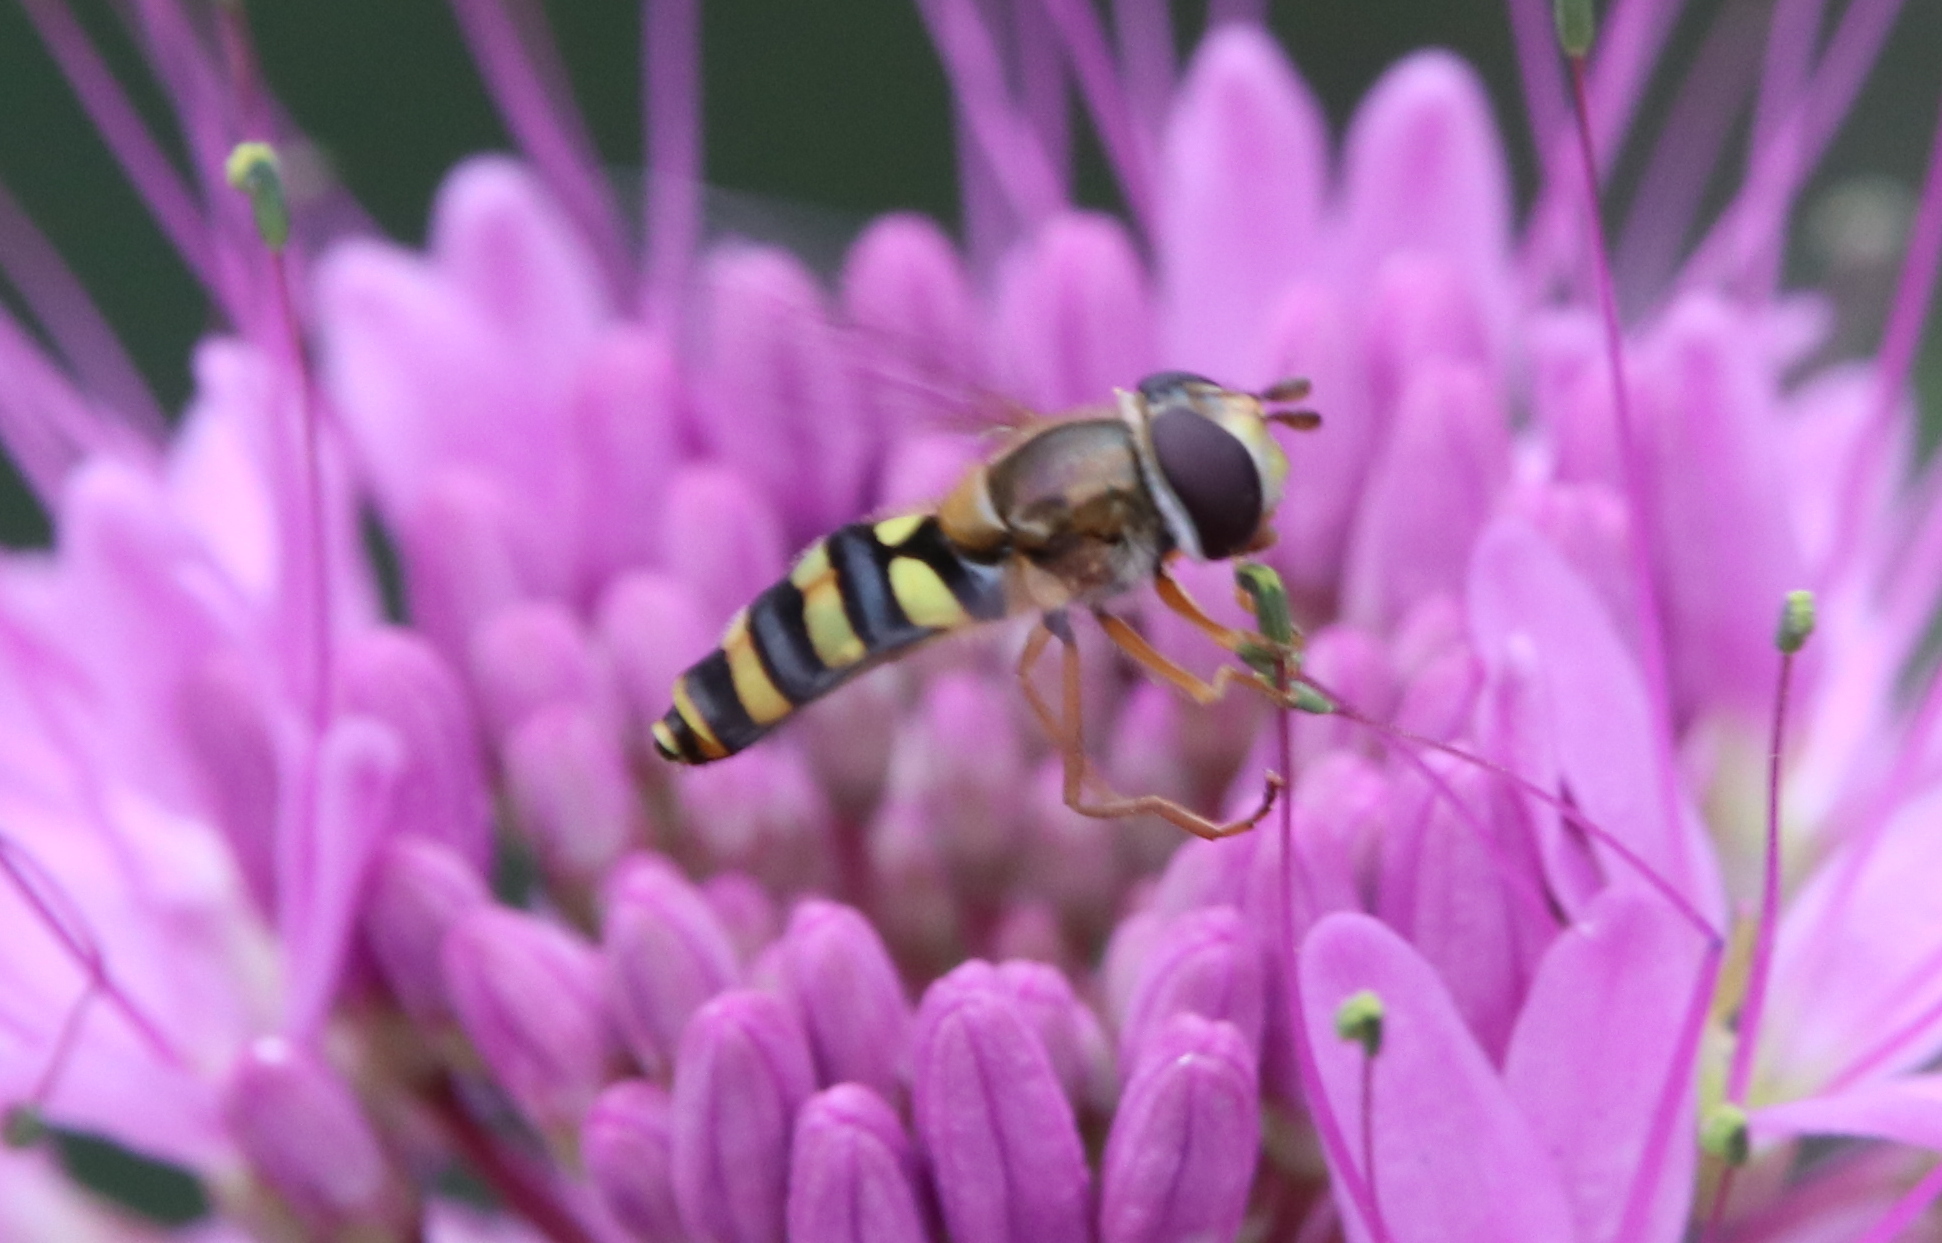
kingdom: Animalia
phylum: Arthropoda
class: Insecta
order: Diptera
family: Syrphidae
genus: Syrphus
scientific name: Syrphus opinator
